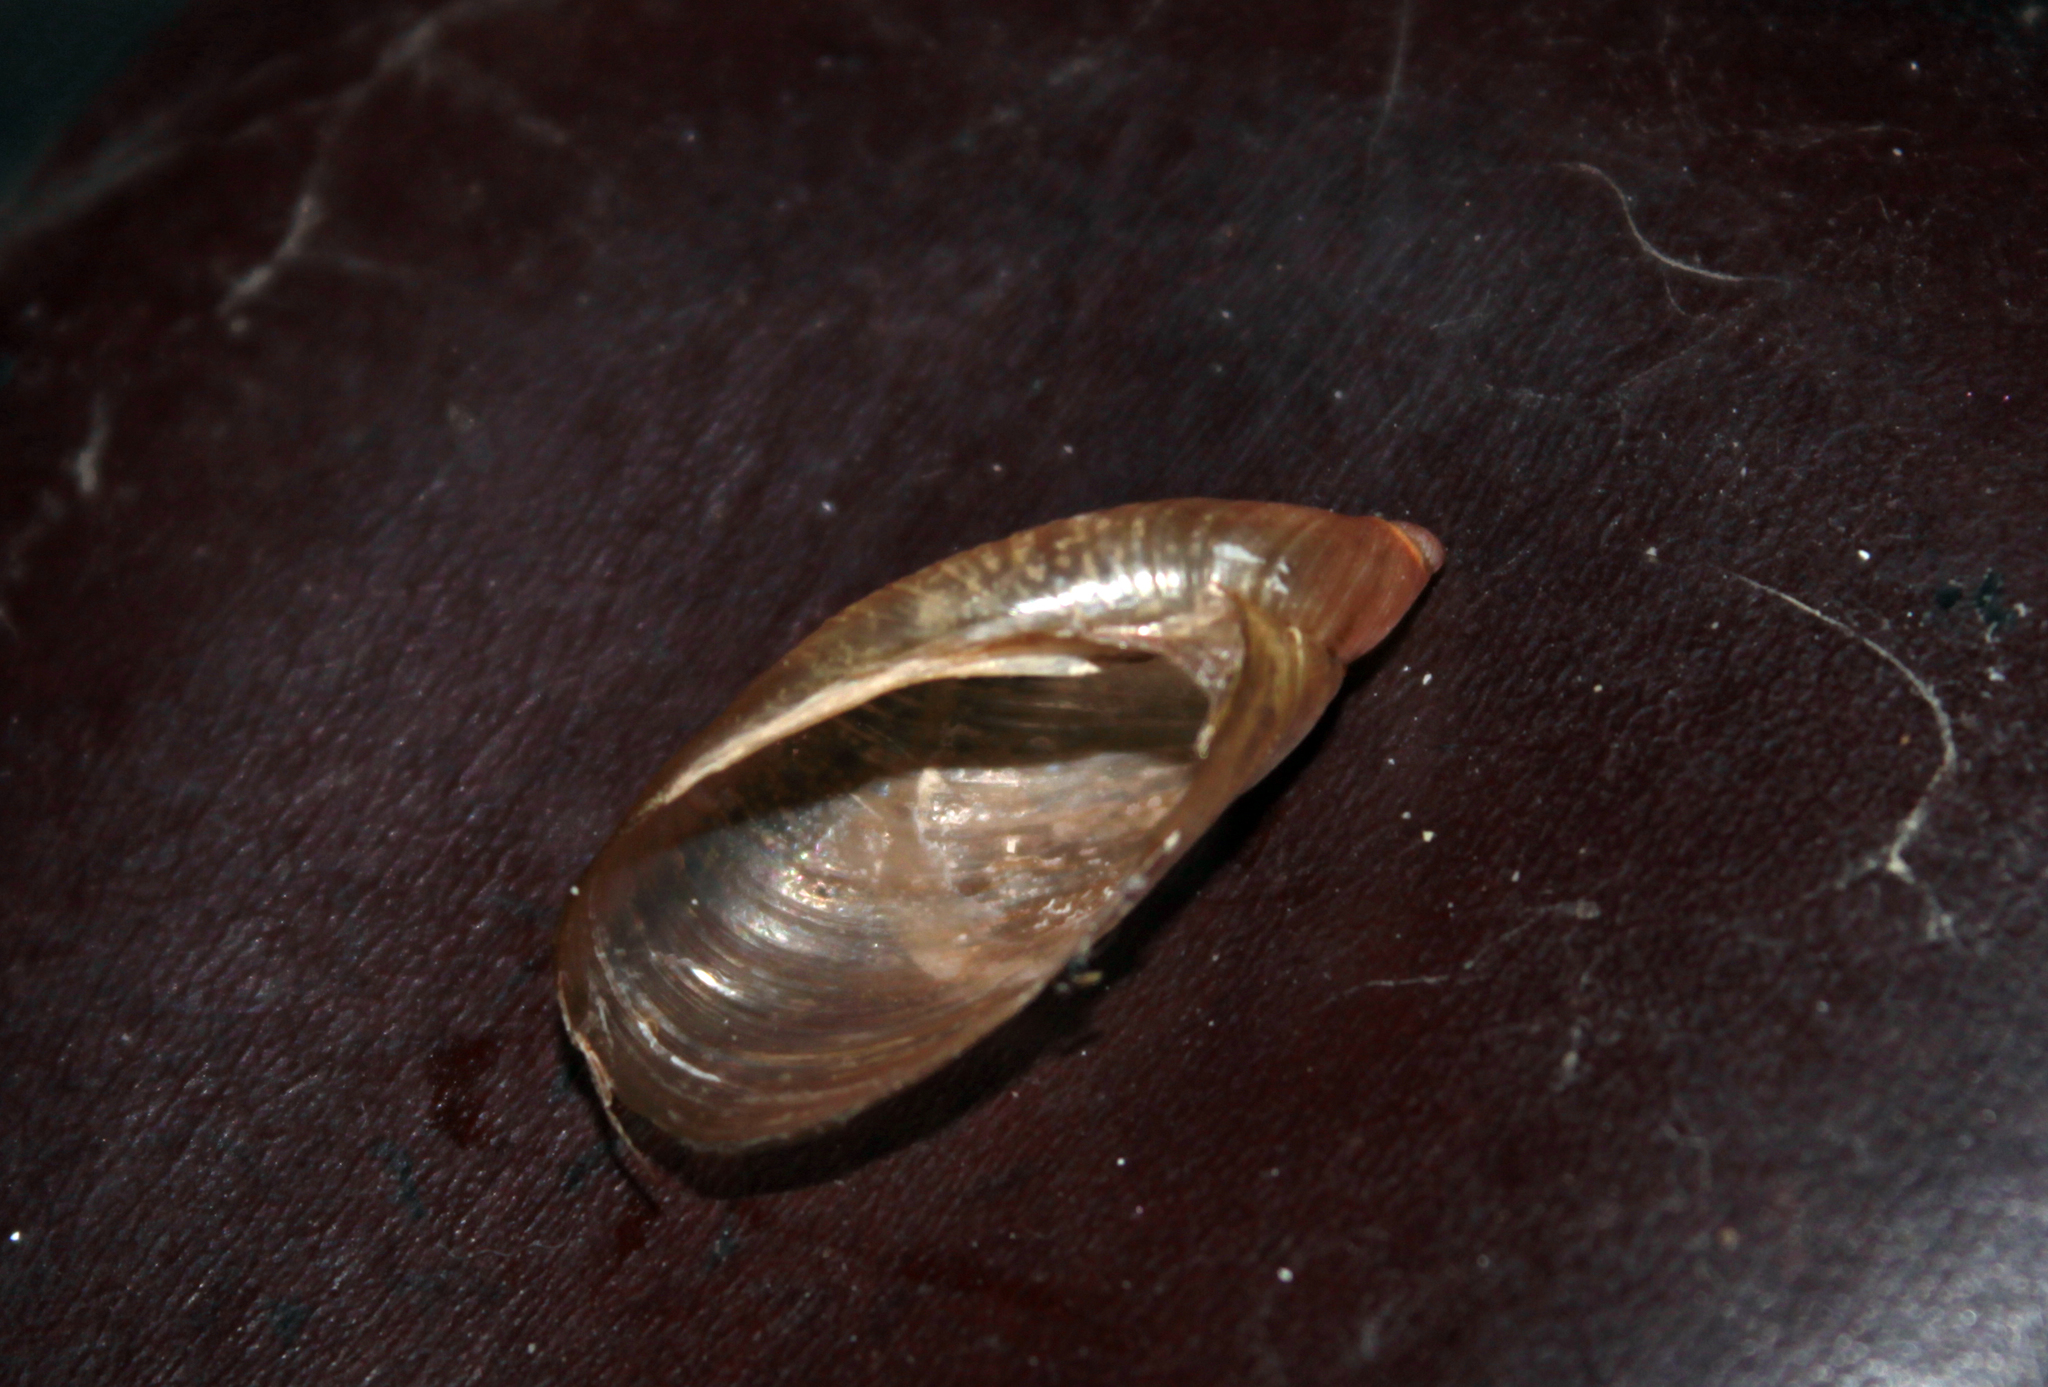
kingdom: Animalia
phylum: Mollusca
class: Gastropoda
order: Stylommatophora
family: Succineidae
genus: Oxyloma
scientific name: Oxyloma elegans
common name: Pfeiffer's amber snail
